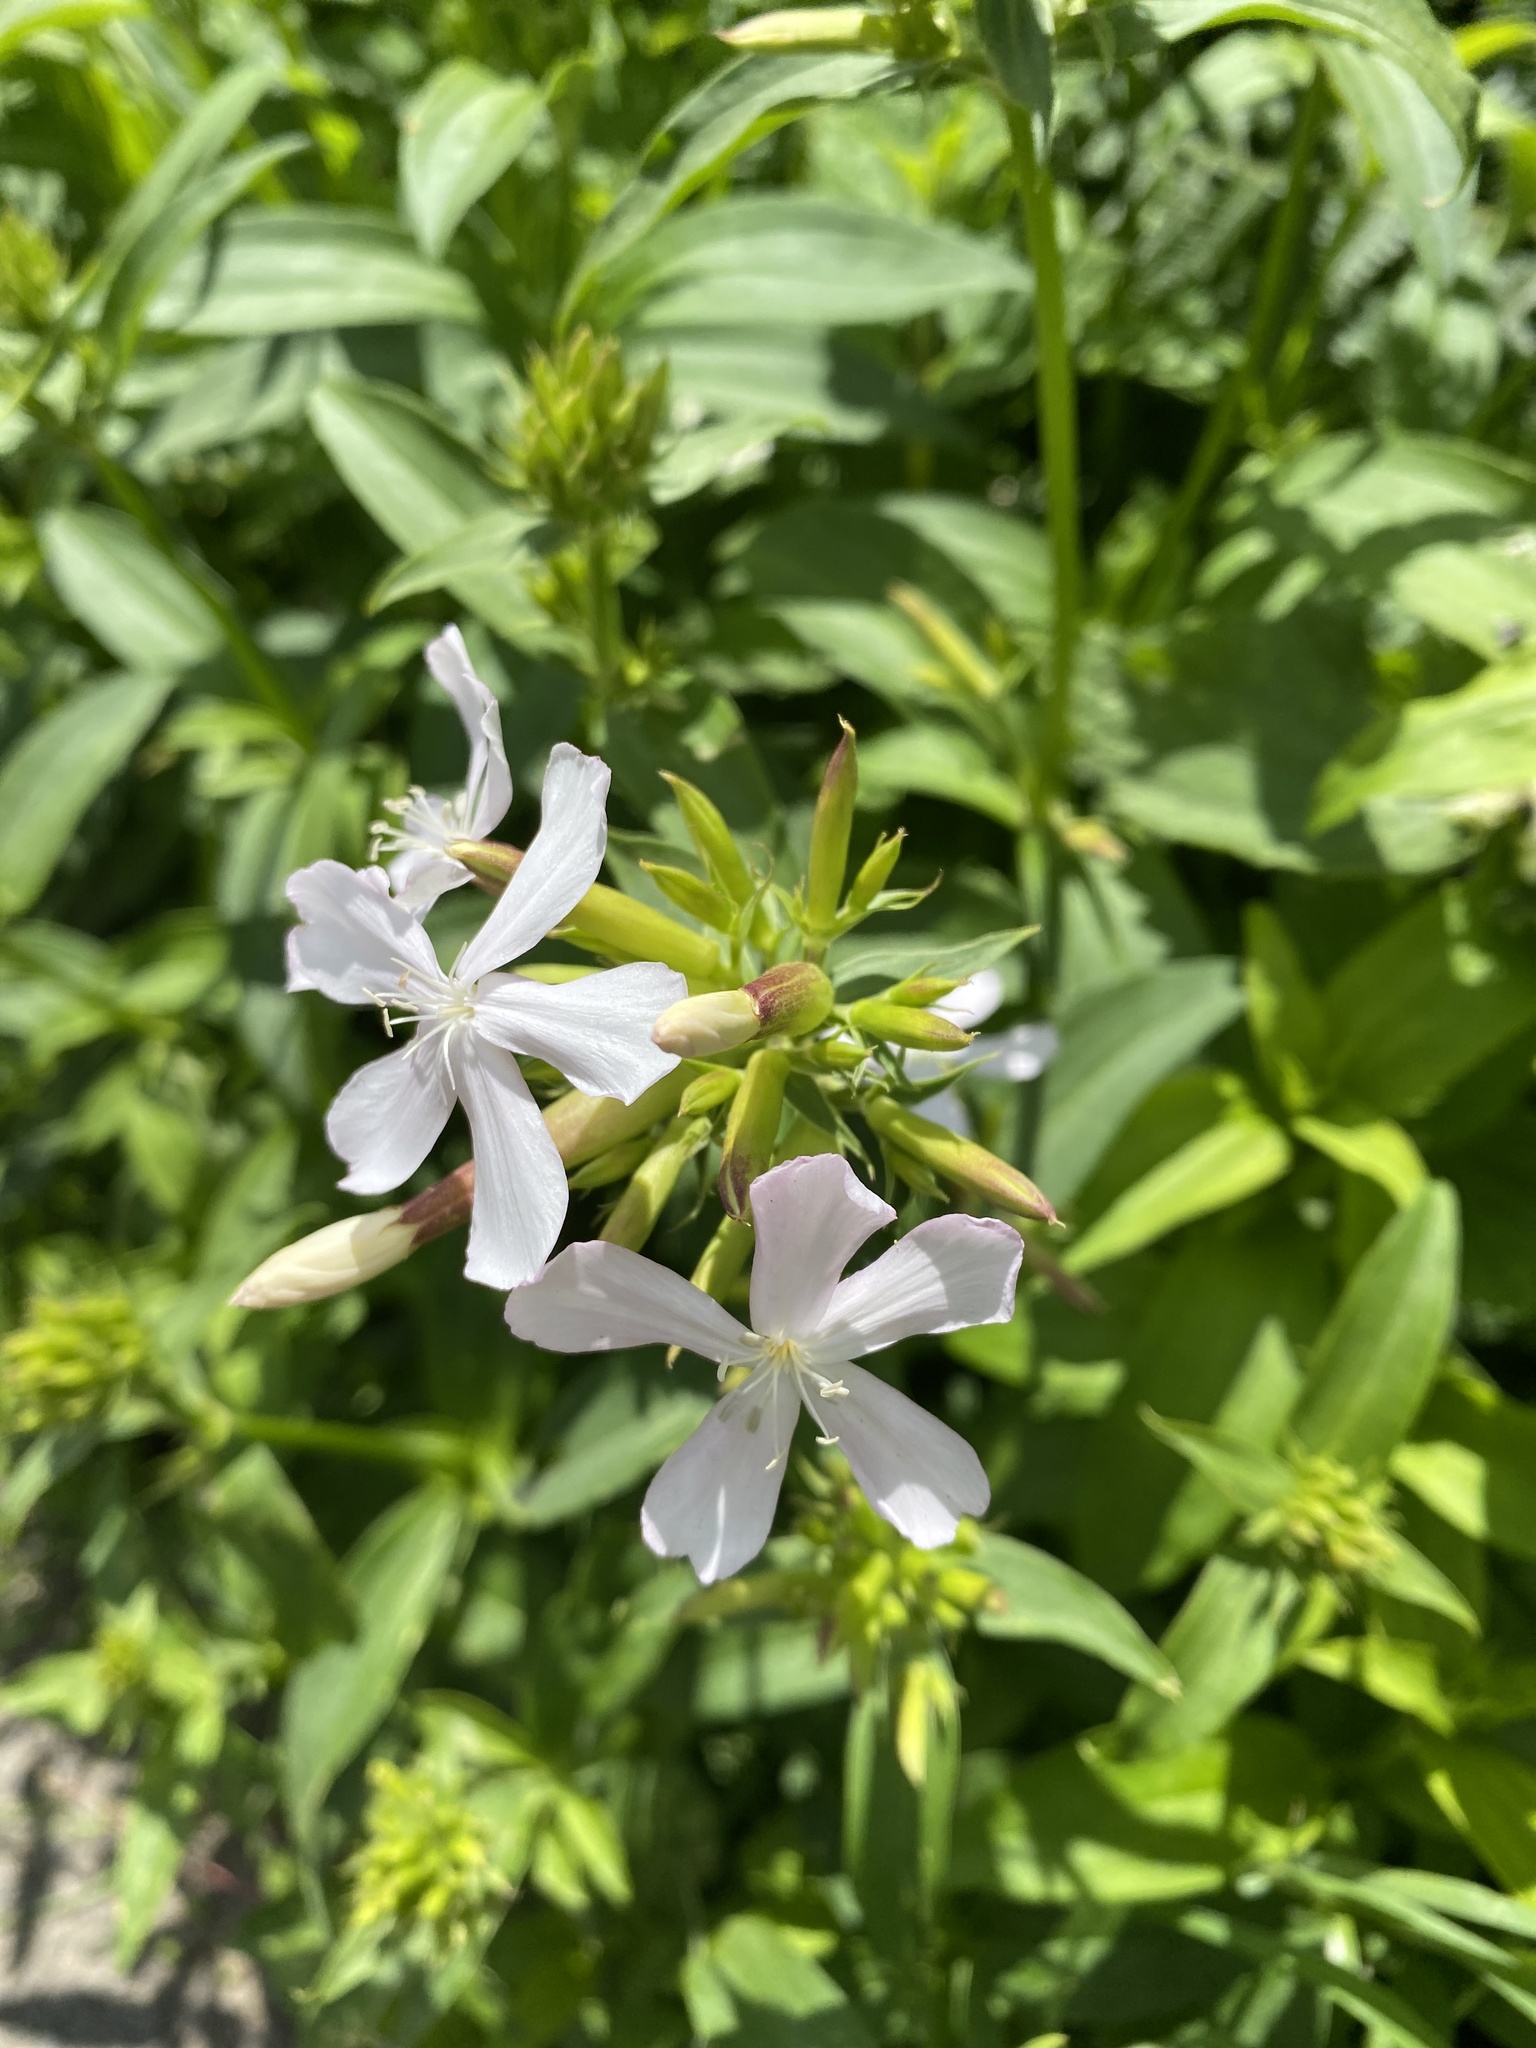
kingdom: Plantae
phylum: Tracheophyta
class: Magnoliopsida
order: Caryophyllales
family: Caryophyllaceae
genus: Saponaria
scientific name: Saponaria officinalis
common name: Soapwort
